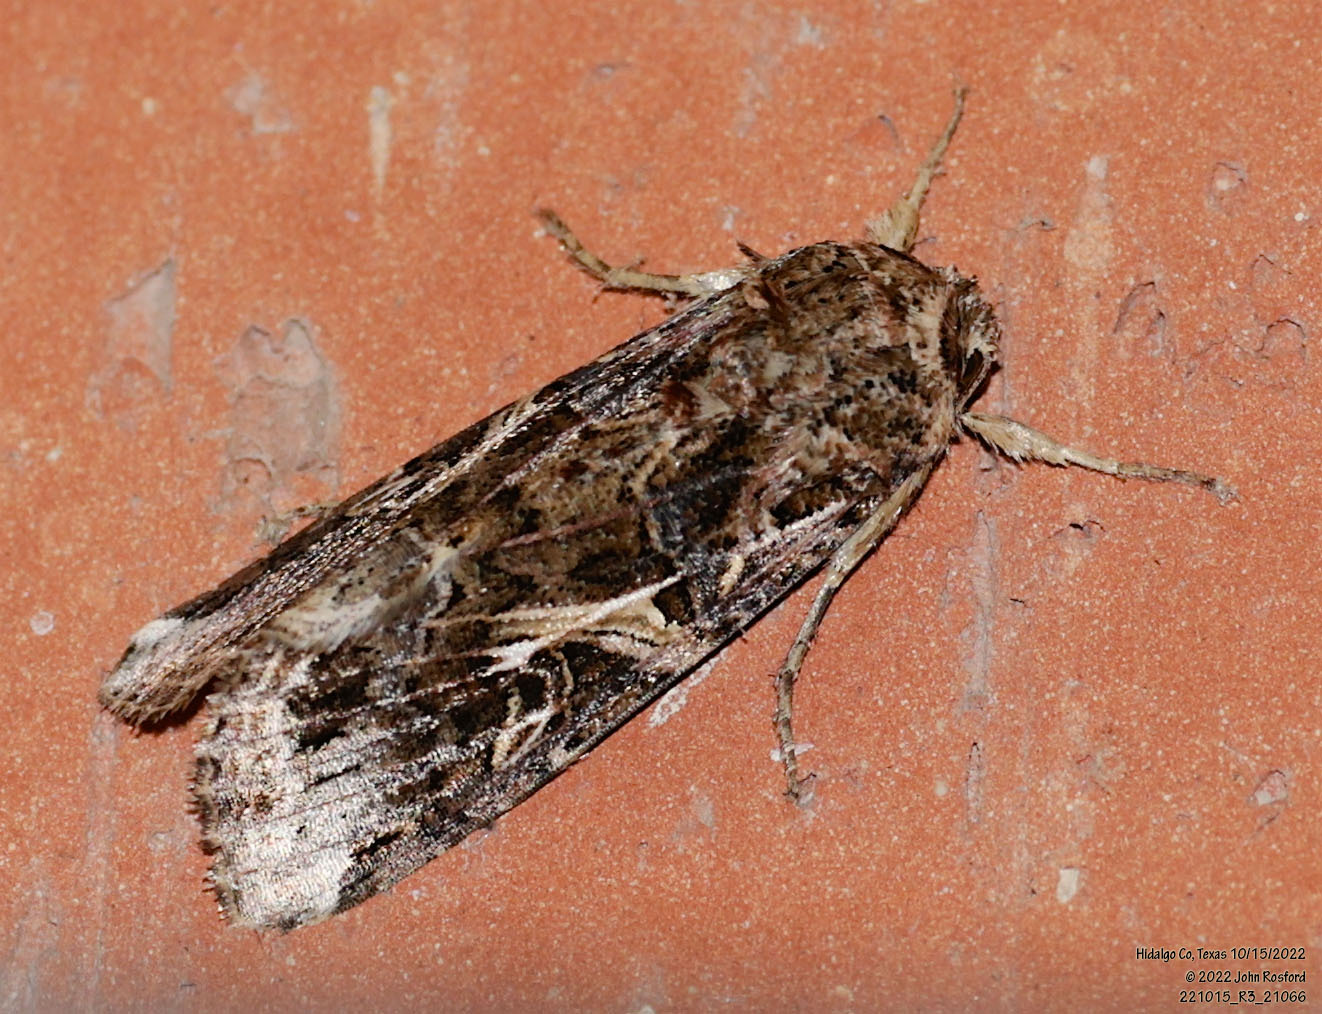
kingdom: Animalia
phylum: Arthropoda
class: Insecta
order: Lepidoptera
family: Noctuidae
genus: Spodoptera
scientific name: Spodoptera ornithogalli
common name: Yellow-striped armyworm
